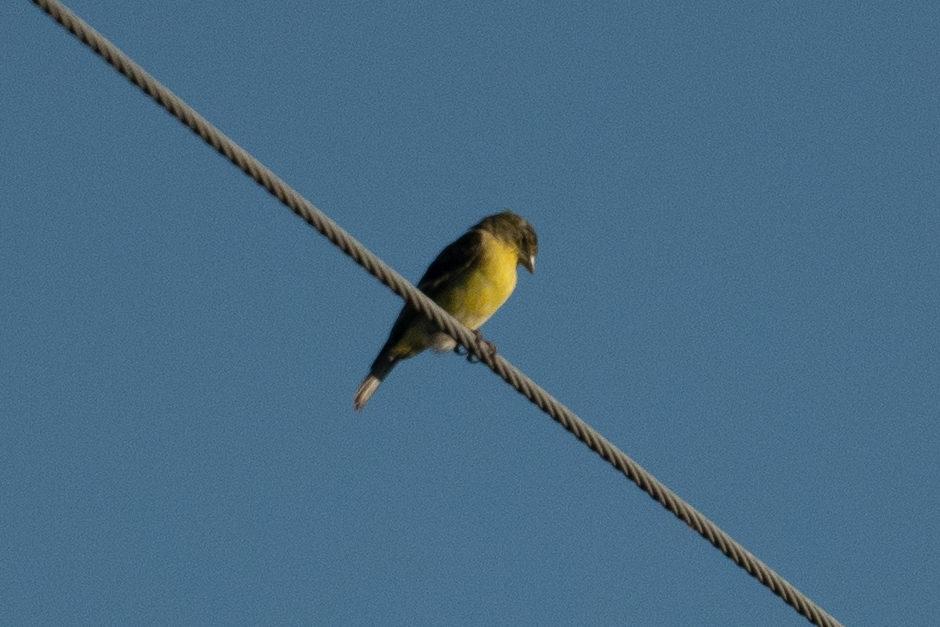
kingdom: Animalia
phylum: Chordata
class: Aves
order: Passeriformes
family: Fringillidae
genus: Spinus
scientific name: Spinus psaltria
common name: Lesser goldfinch
